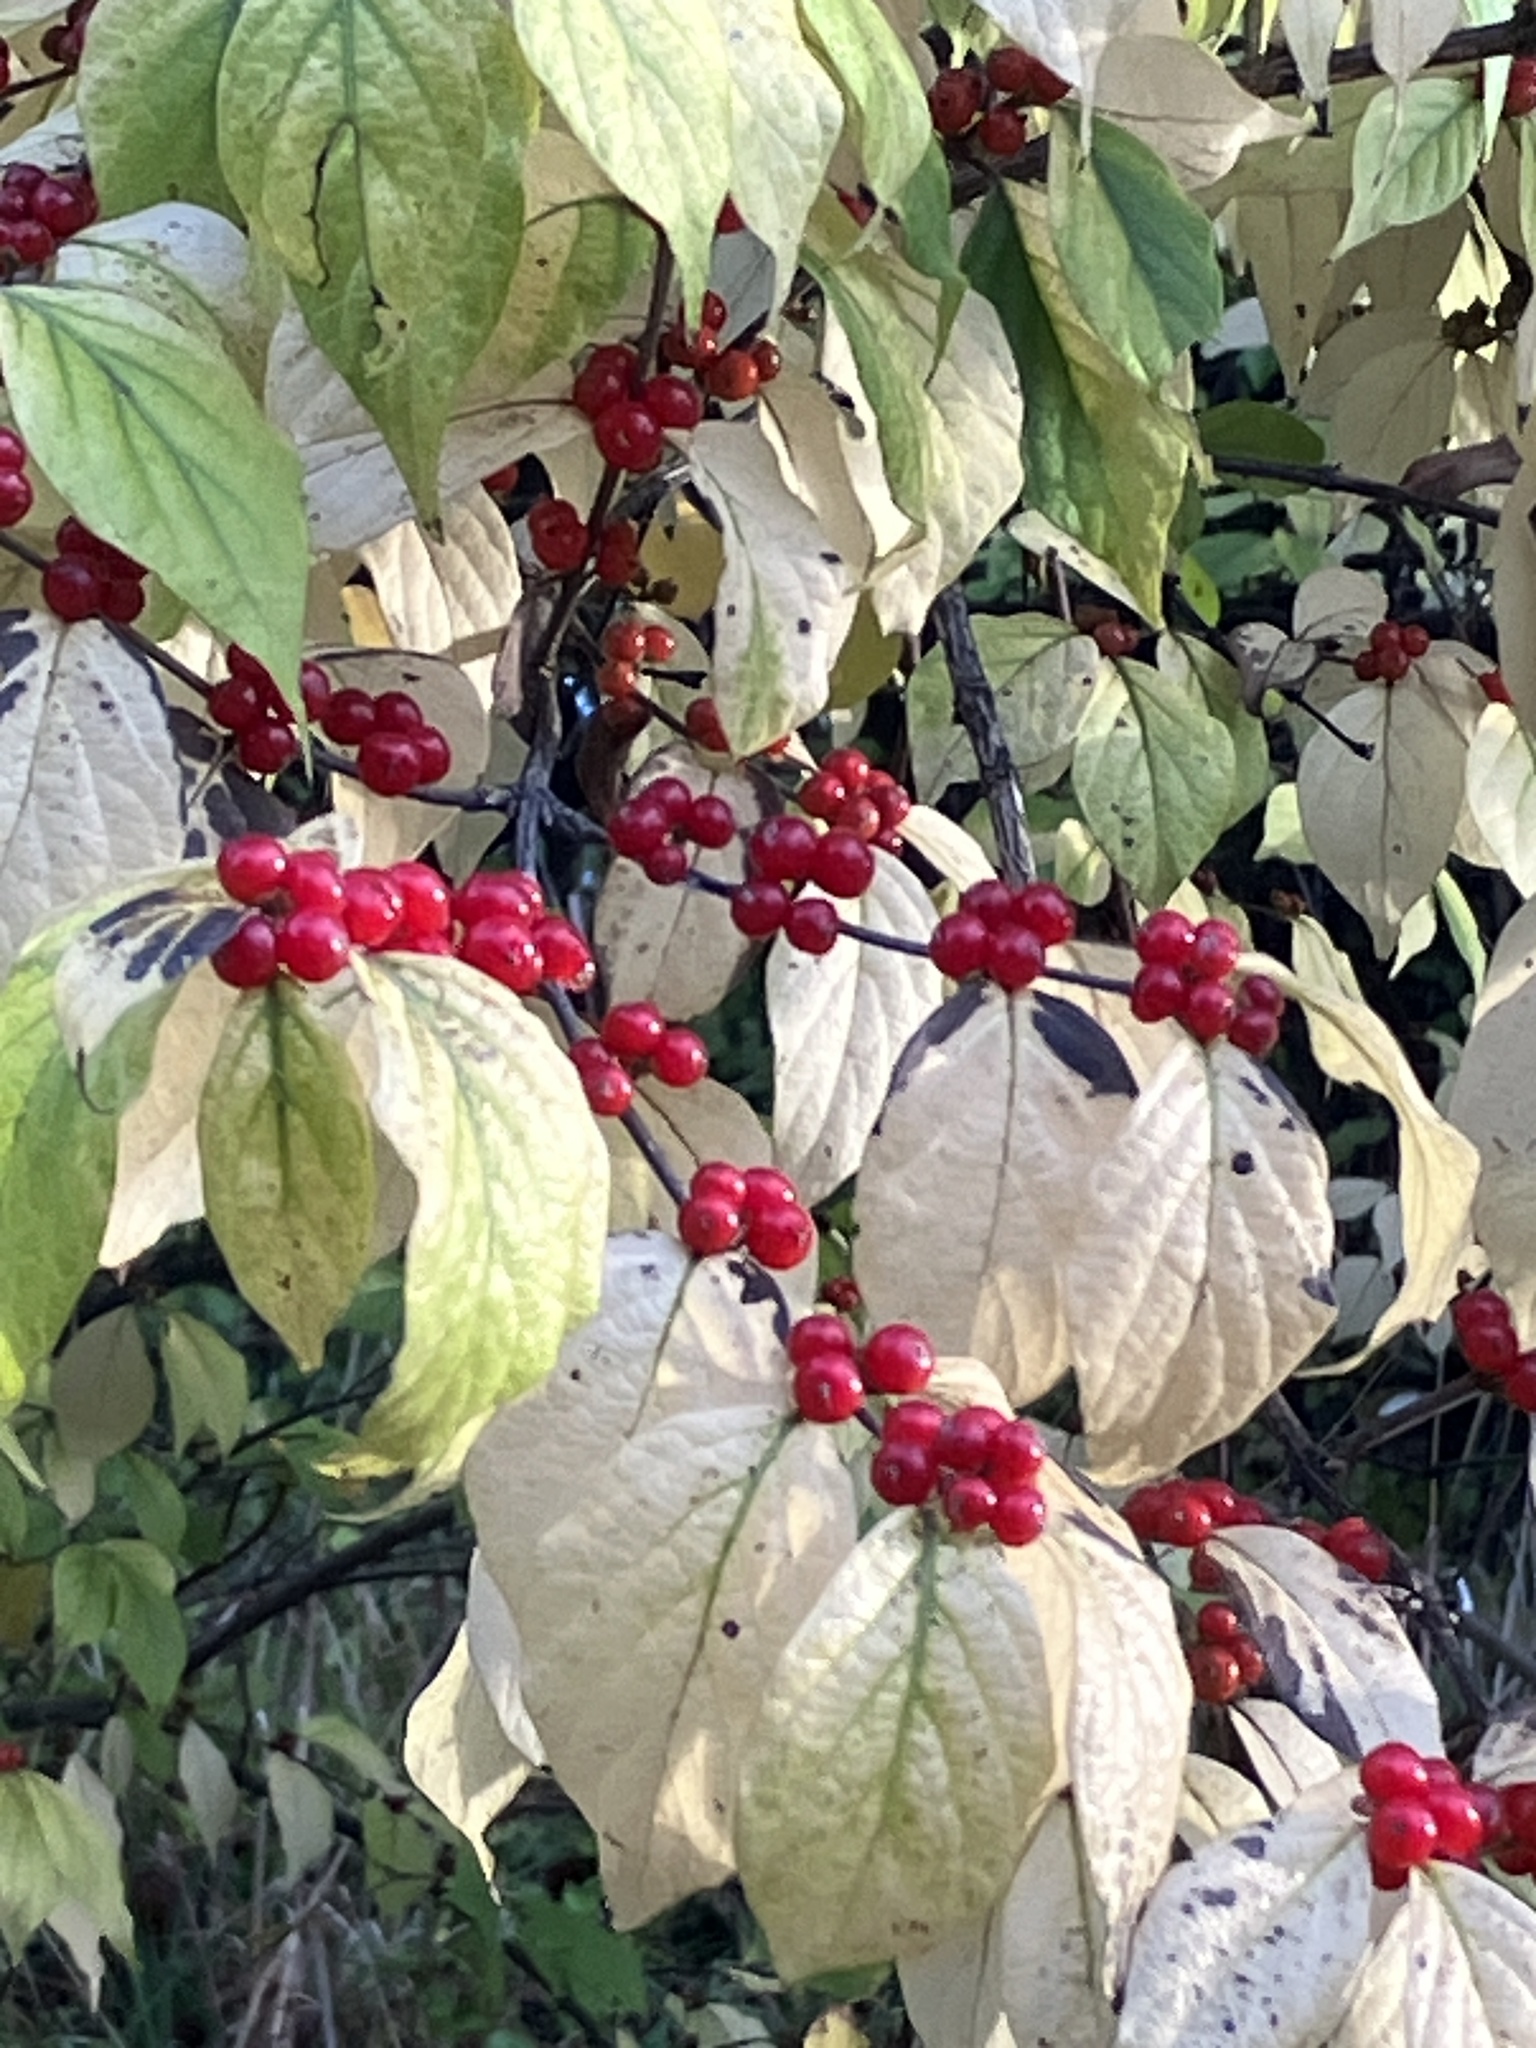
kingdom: Plantae
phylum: Tracheophyta
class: Magnoliopsida
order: Dipsacales
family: Caprifoliaceae
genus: Lonicera
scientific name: Lonicera maackii
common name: Amur honeysuckle
